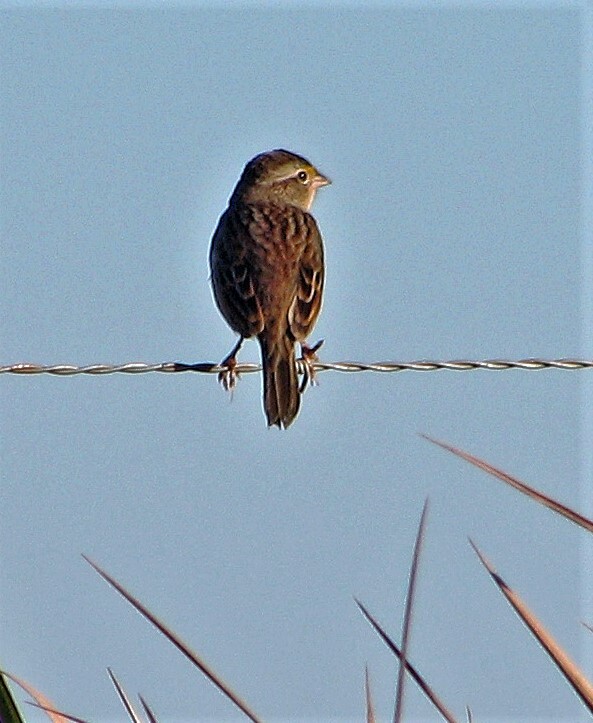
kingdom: Animalia
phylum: Chordata
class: Aves
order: Passeriformes
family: Passerellidae
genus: Ammodramus
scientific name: Ammodramus humeralis
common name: Grassland sparrow
